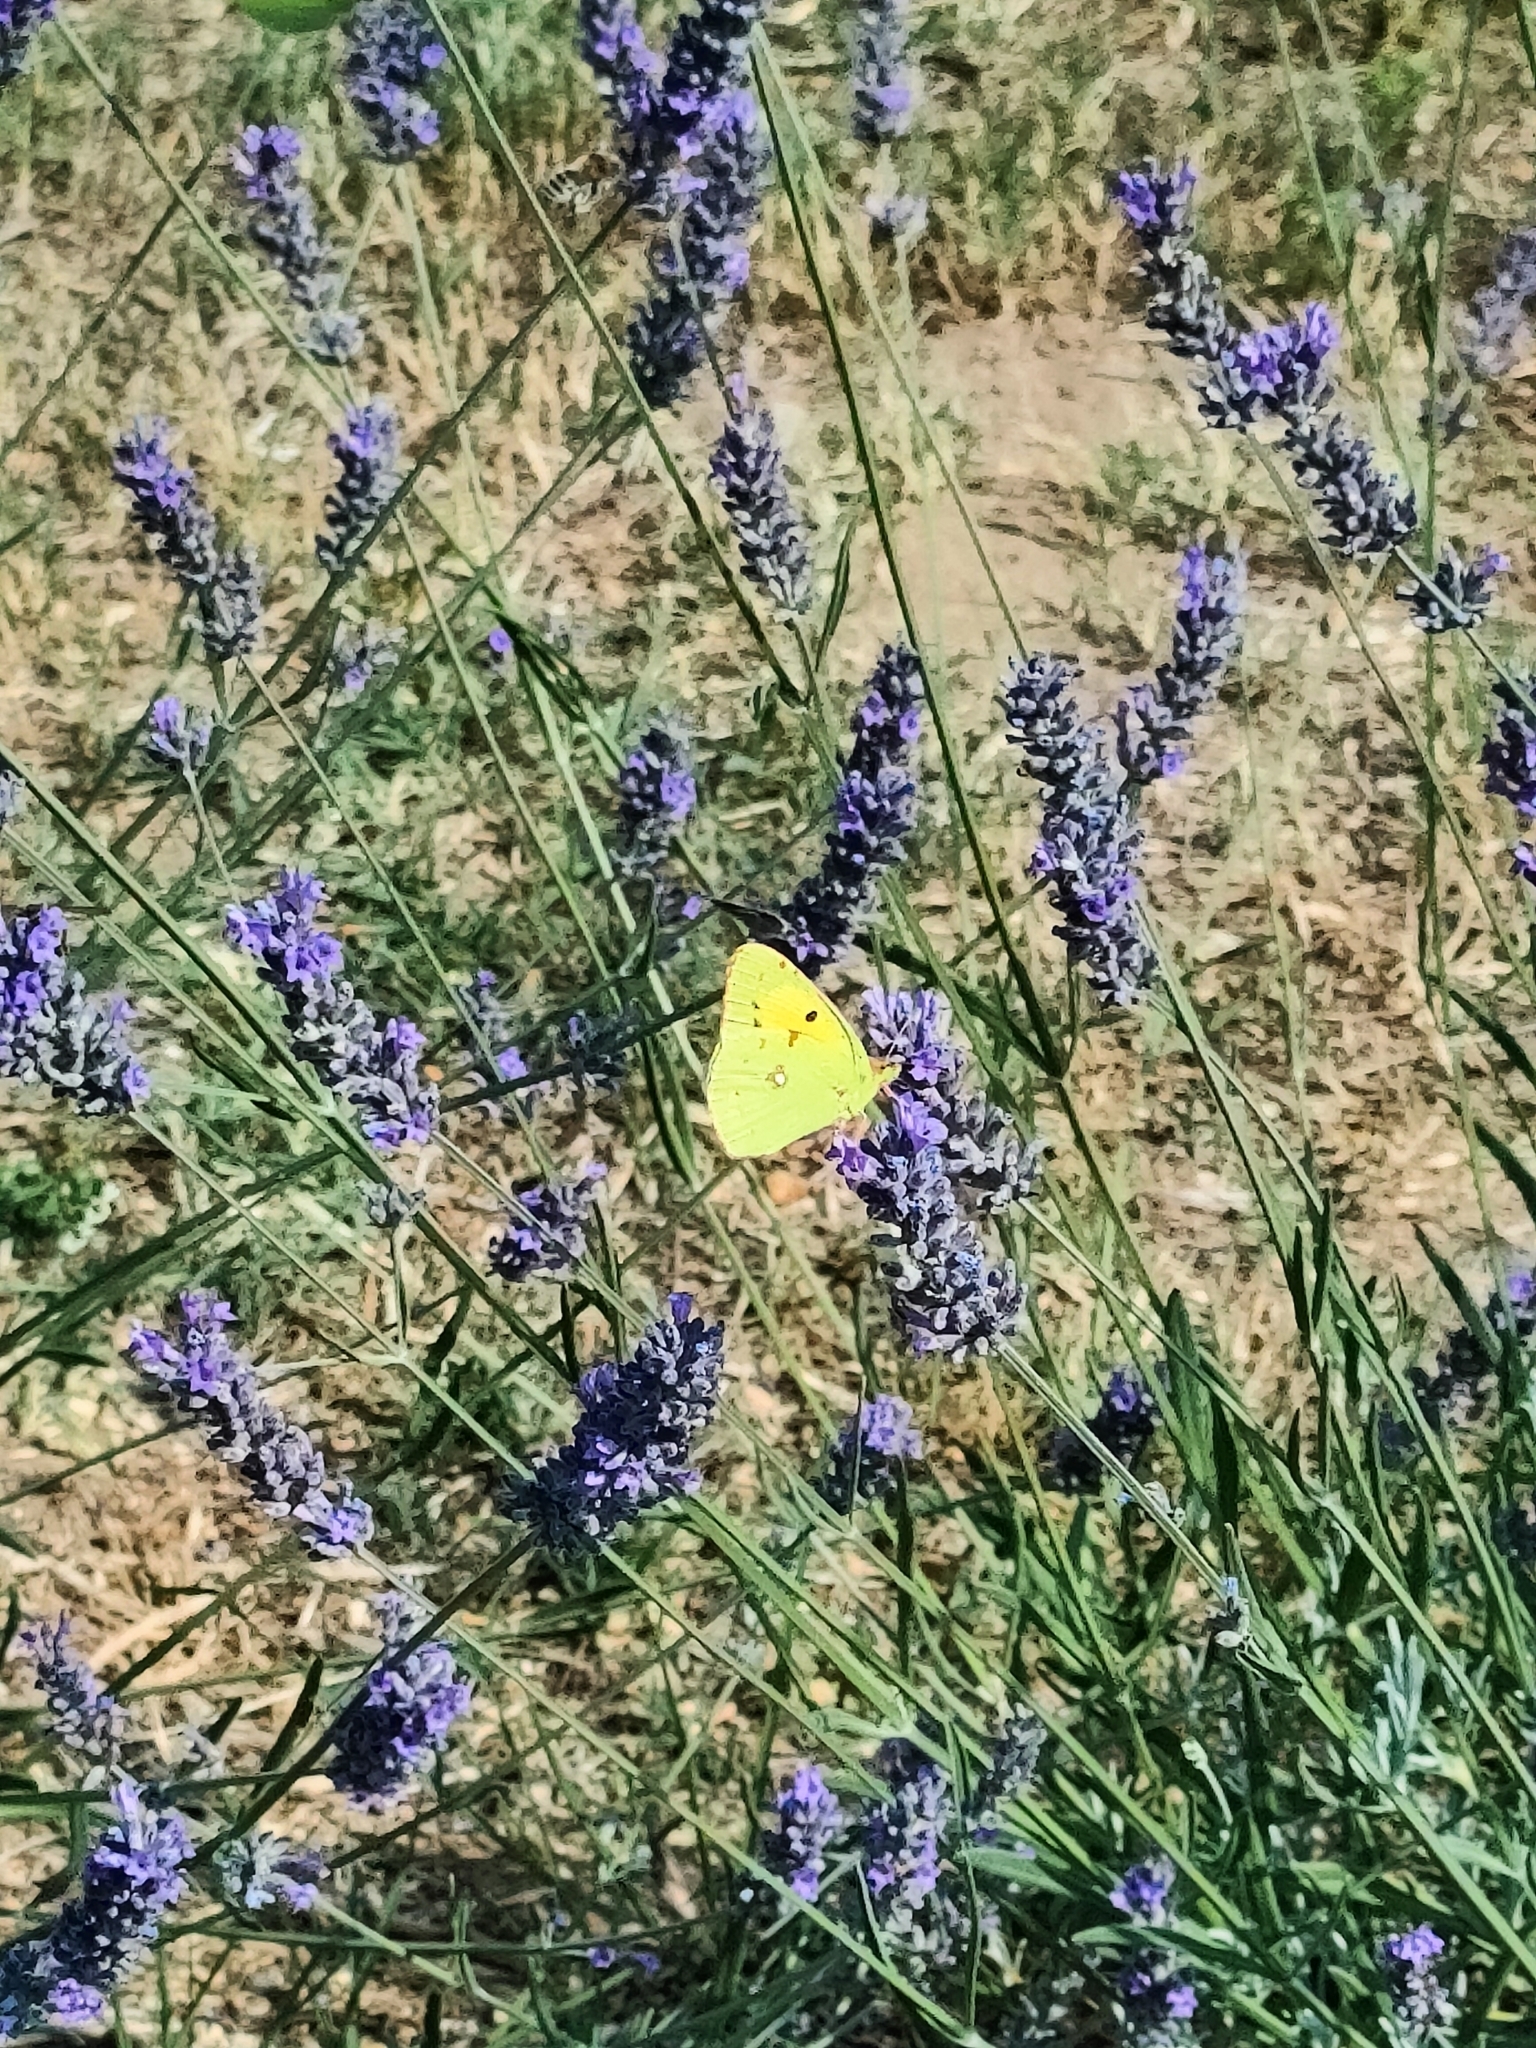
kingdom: Animalia
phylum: Arthropoda
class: Insecta
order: Lepidoptera
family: Pieridae
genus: Colias
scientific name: Colias croceus
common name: Clouded yellow
